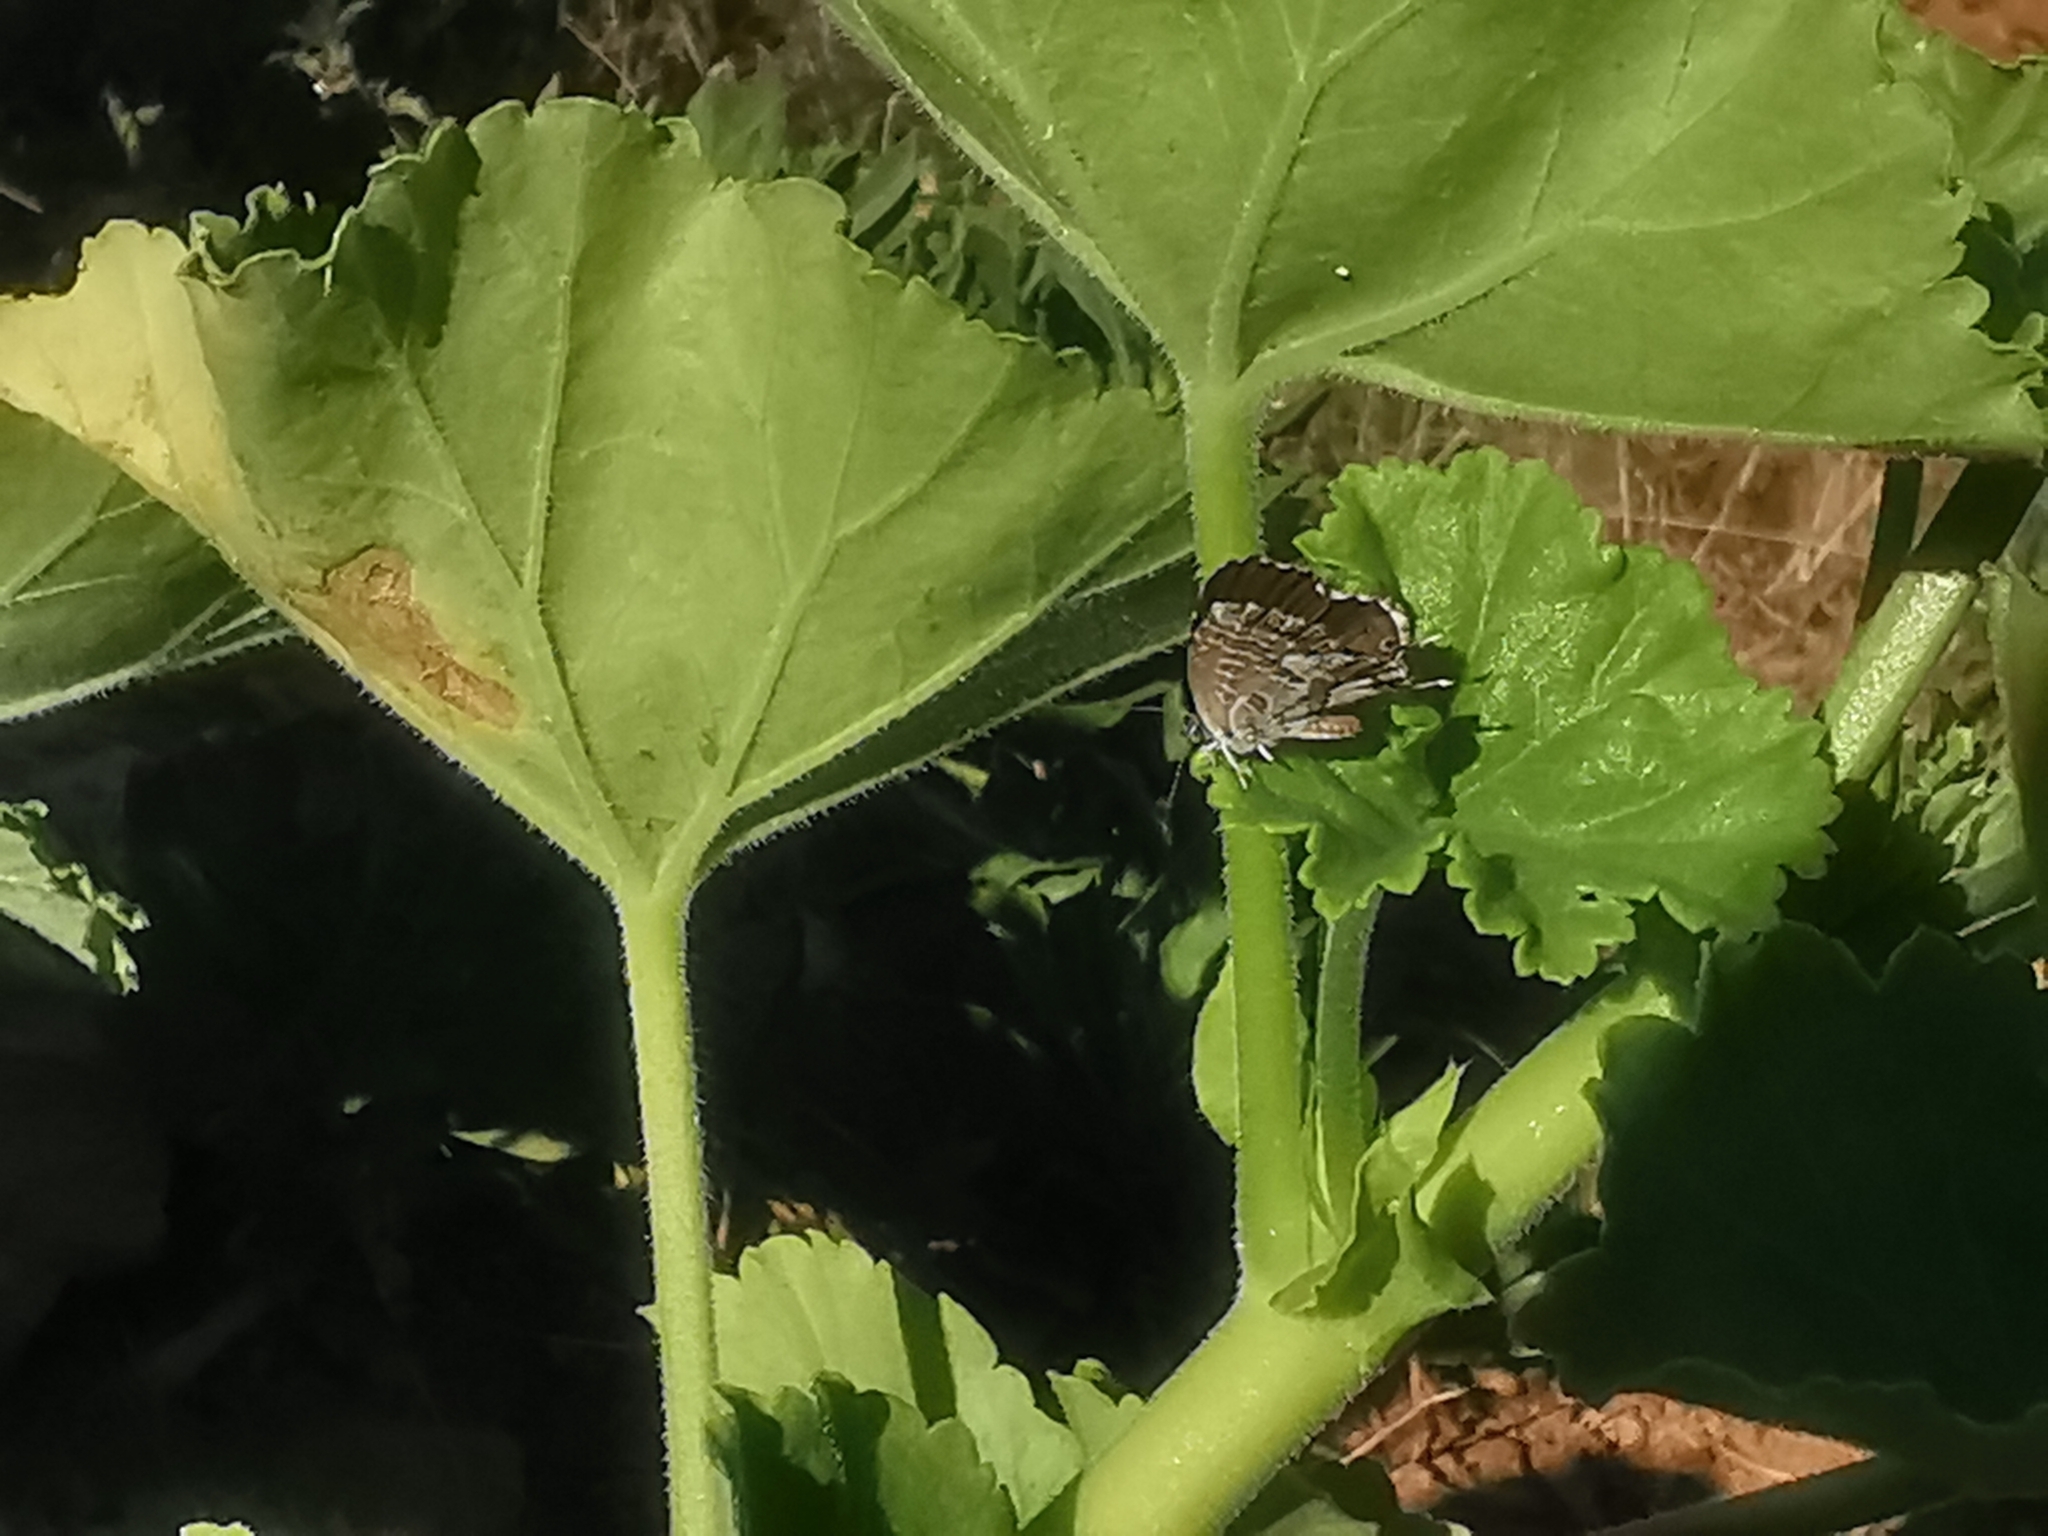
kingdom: Animalia
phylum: Arthropoda
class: Insecta
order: Lepidoptera
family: Lycaenidae
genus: Cacyreus
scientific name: Cacyreus marshalli
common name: Geranium bronze
